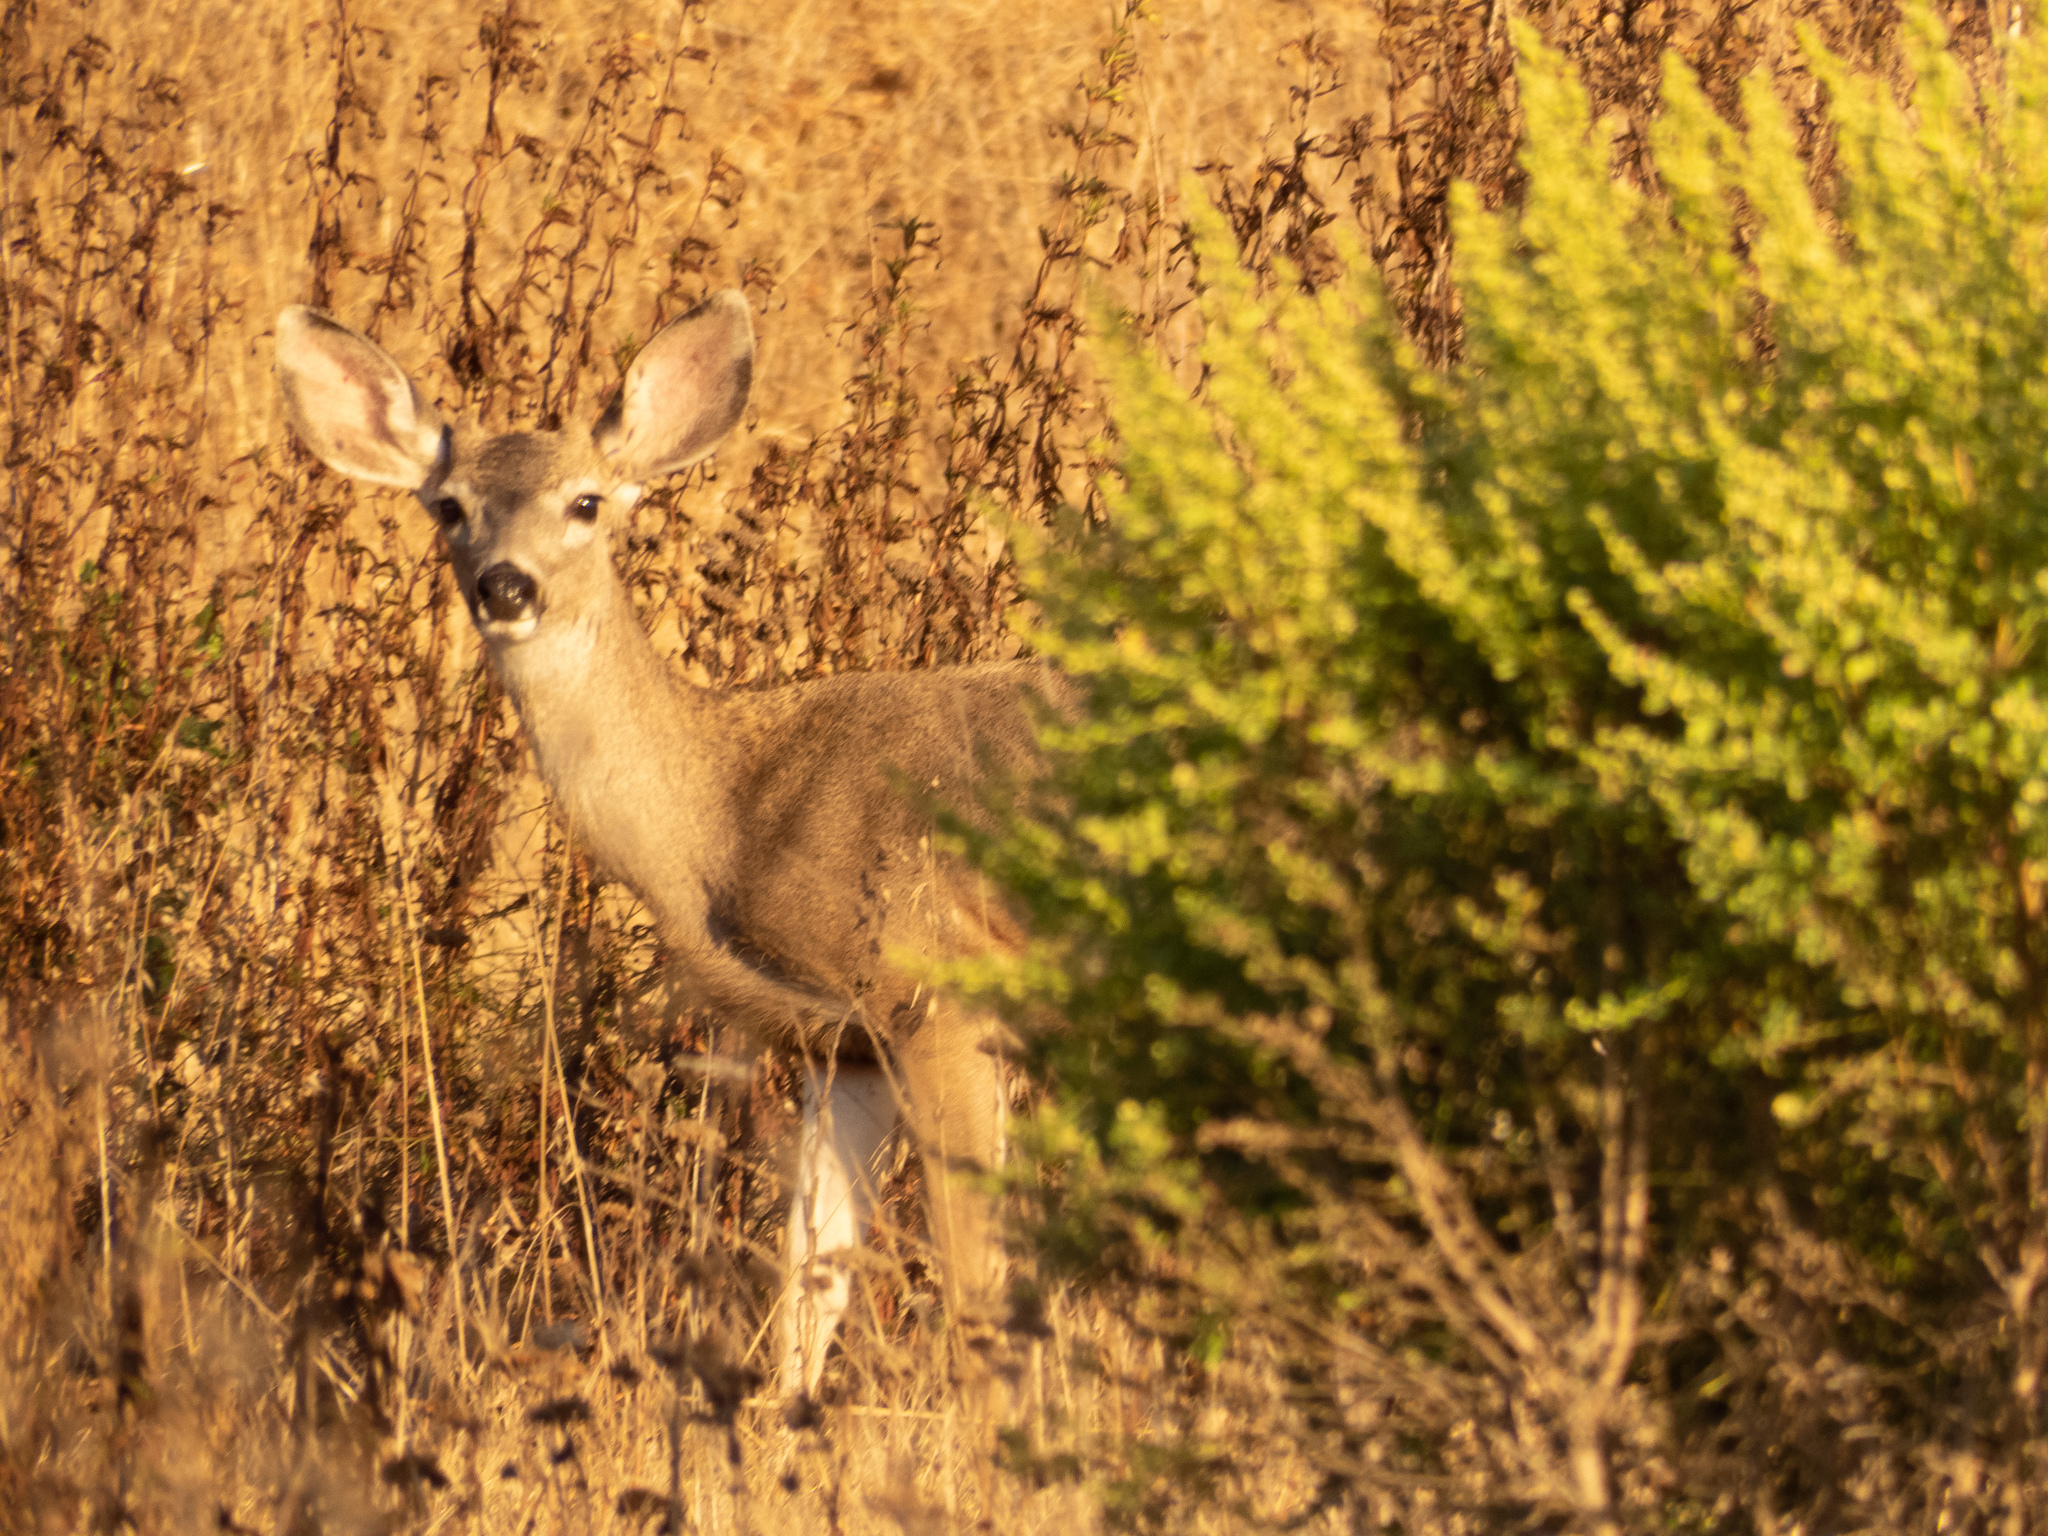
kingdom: Animalia
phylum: Chordata
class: Mammalia
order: Artiodactyla
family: Cervidae
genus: Odocoileus
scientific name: Odocoileus hemionus
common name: Mule deer
